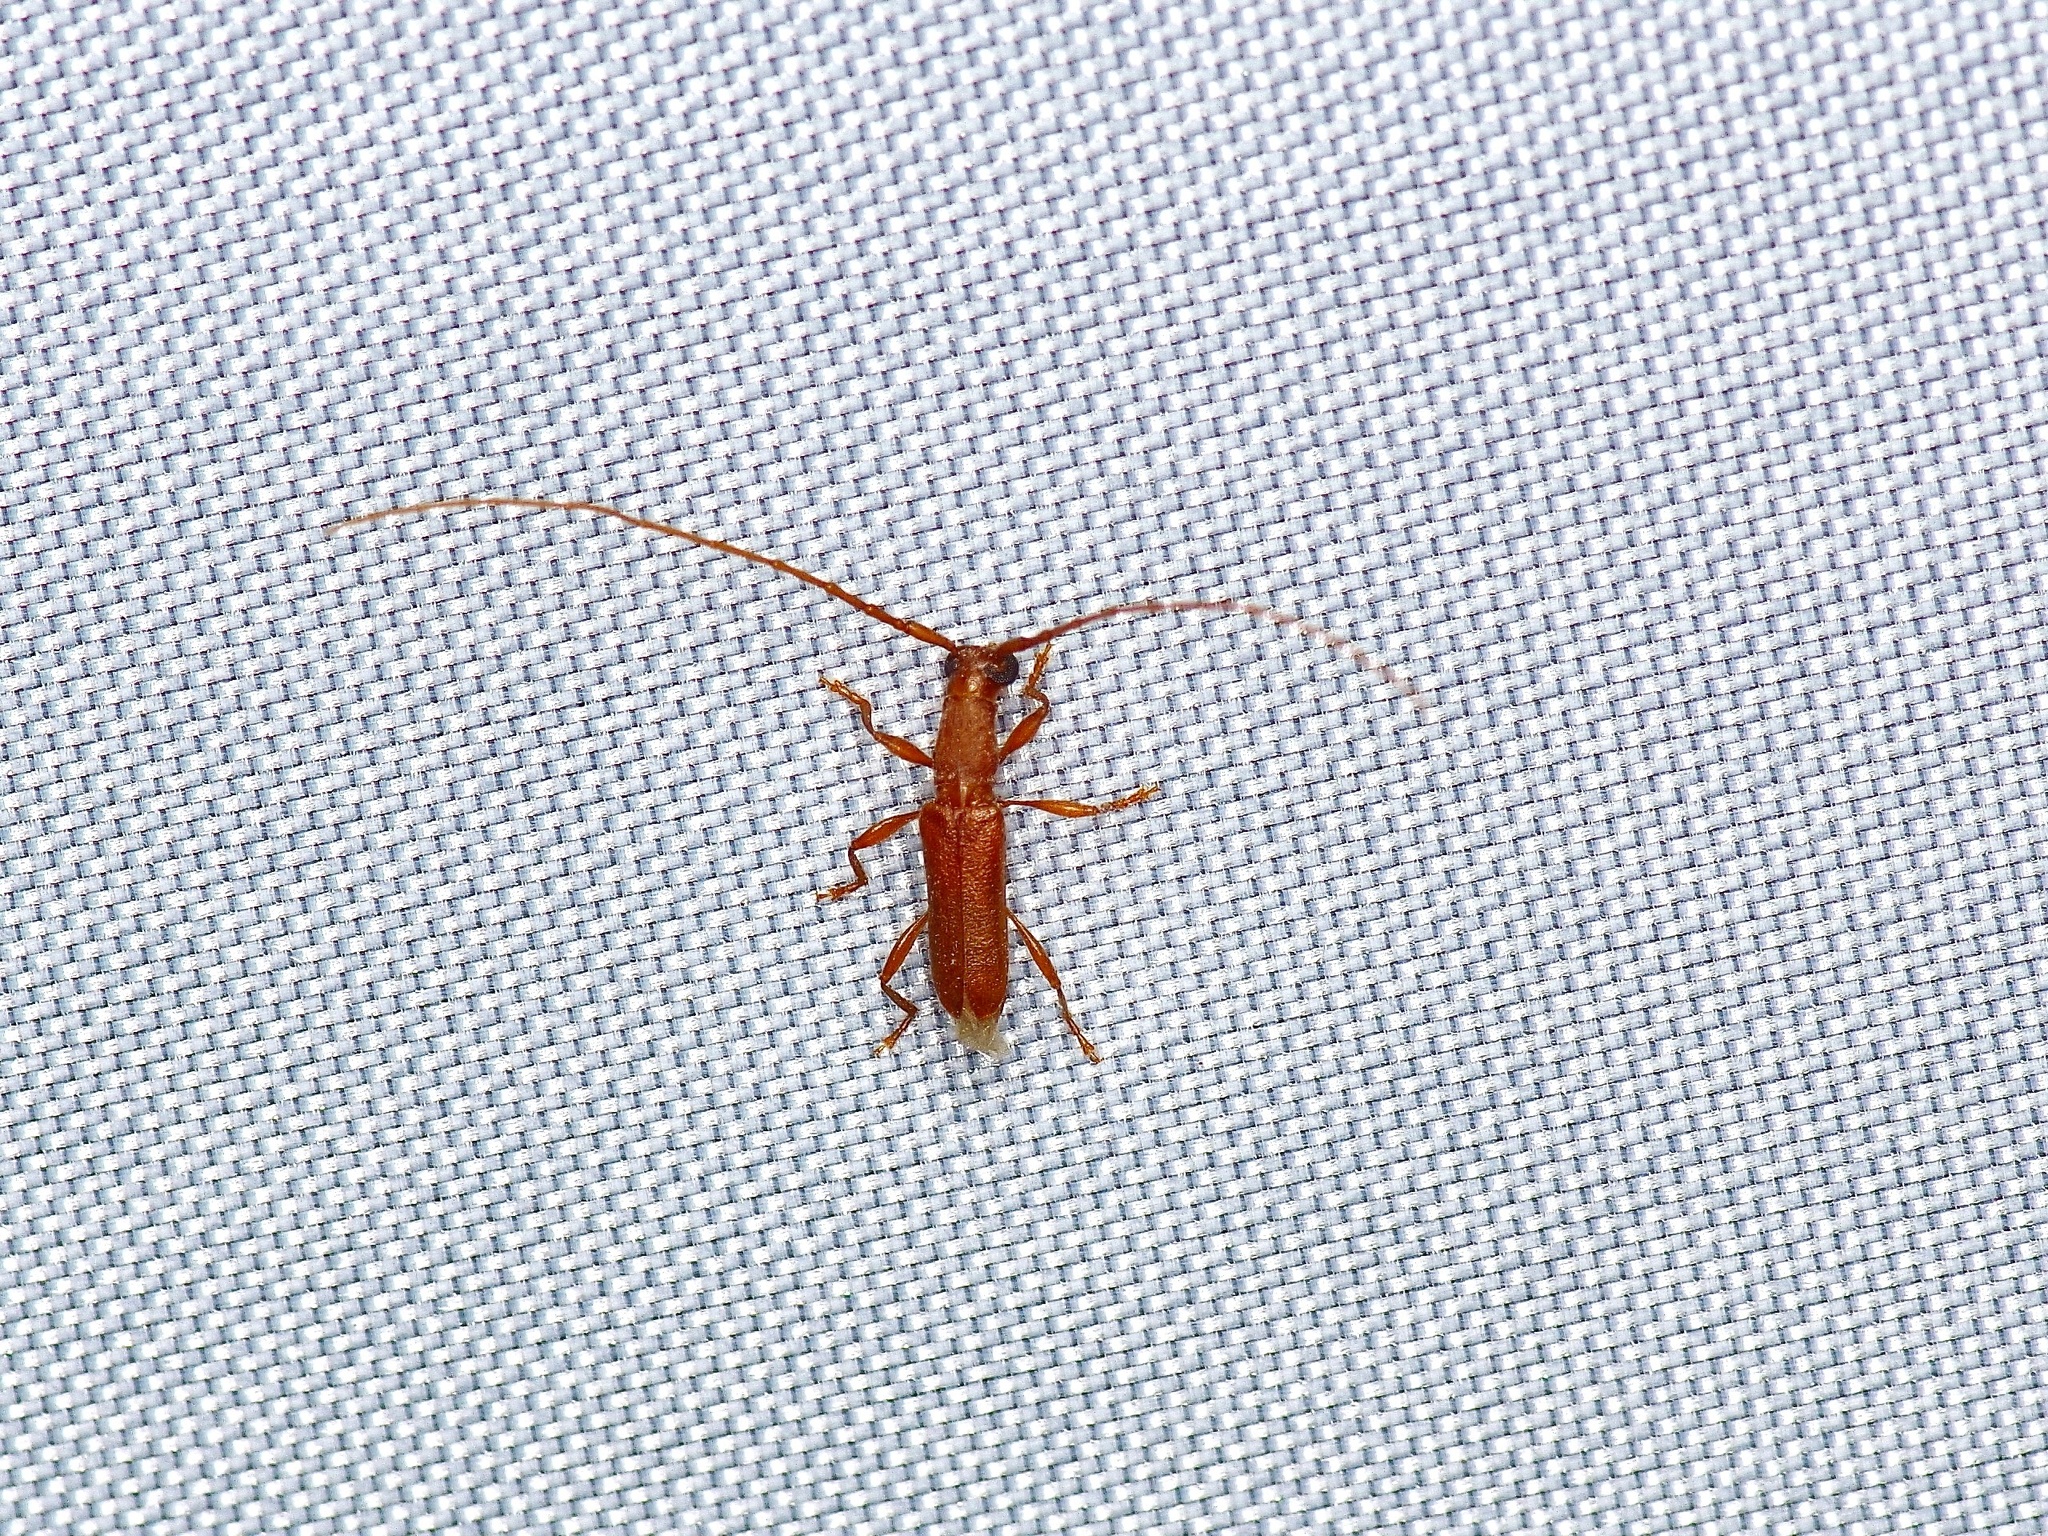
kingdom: Animalia
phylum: Arthropoda
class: Insecta
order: Coleoptera
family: Cerambycidae
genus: Hypexilis
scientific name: Hypexilis pallida
